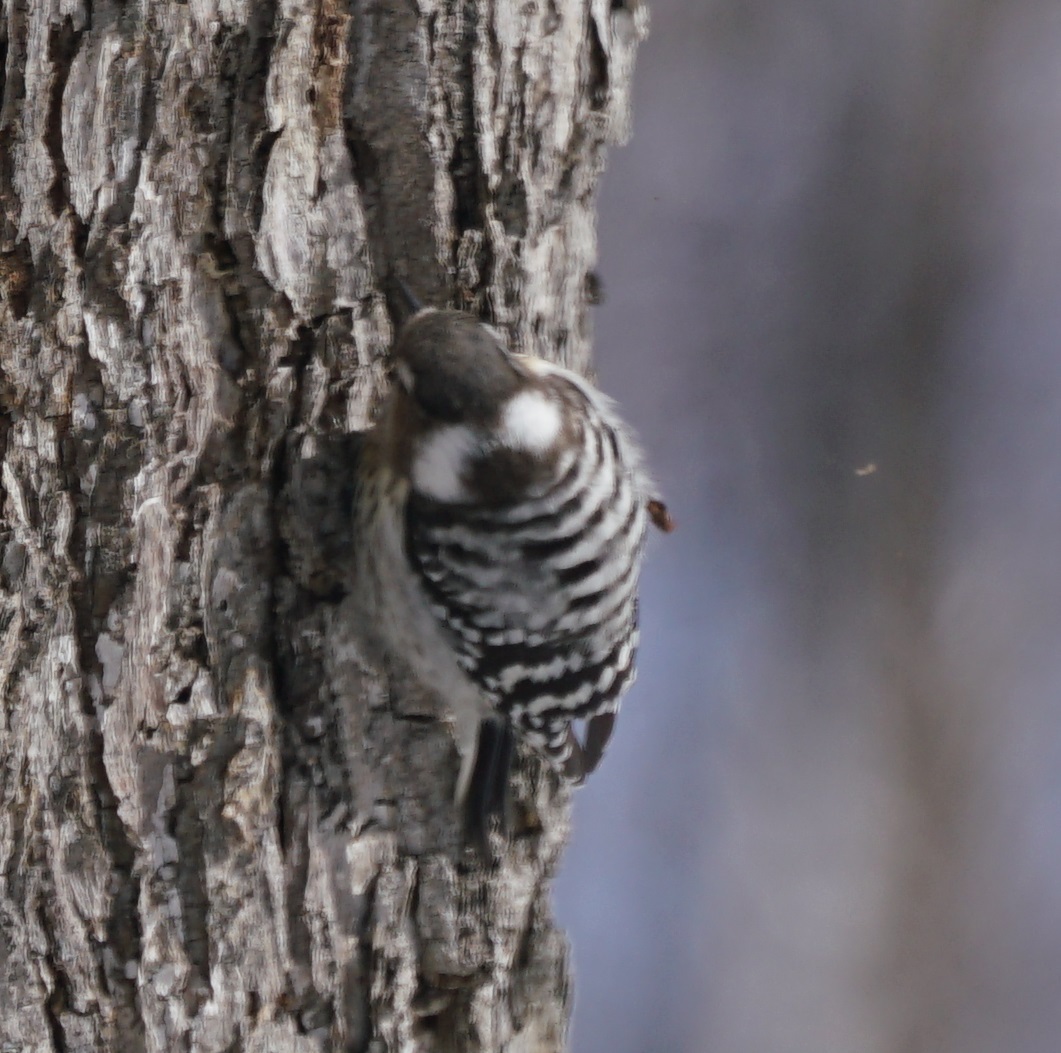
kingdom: Animalia
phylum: Chordata
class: Aves
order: Piciformes
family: Picidae
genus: Yungipicus
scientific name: Yungipicus kizuki
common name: Japanese pygmy woodpecker
